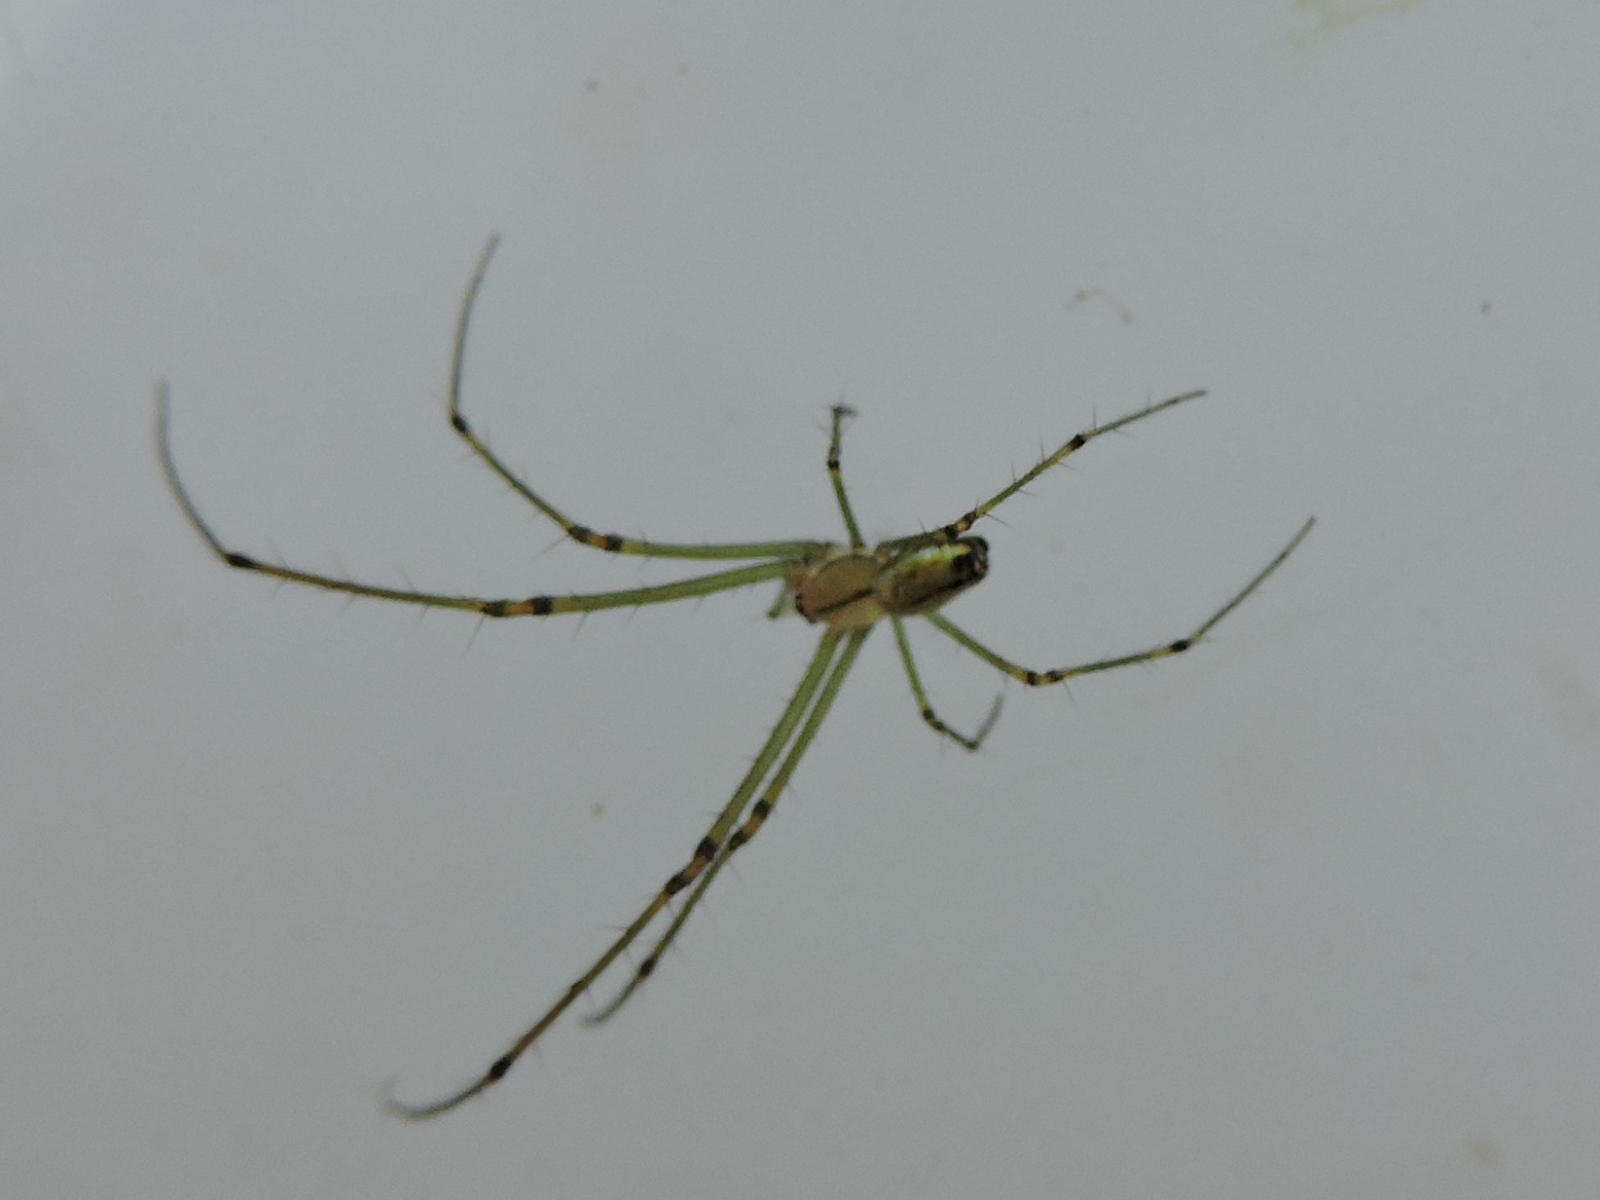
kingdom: Animalia
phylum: Arthropoda
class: Arachnida
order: Araneae
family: Tetragnathidae
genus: Leucauge
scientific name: Leucauge venusta
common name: Longjawed orb weavers
